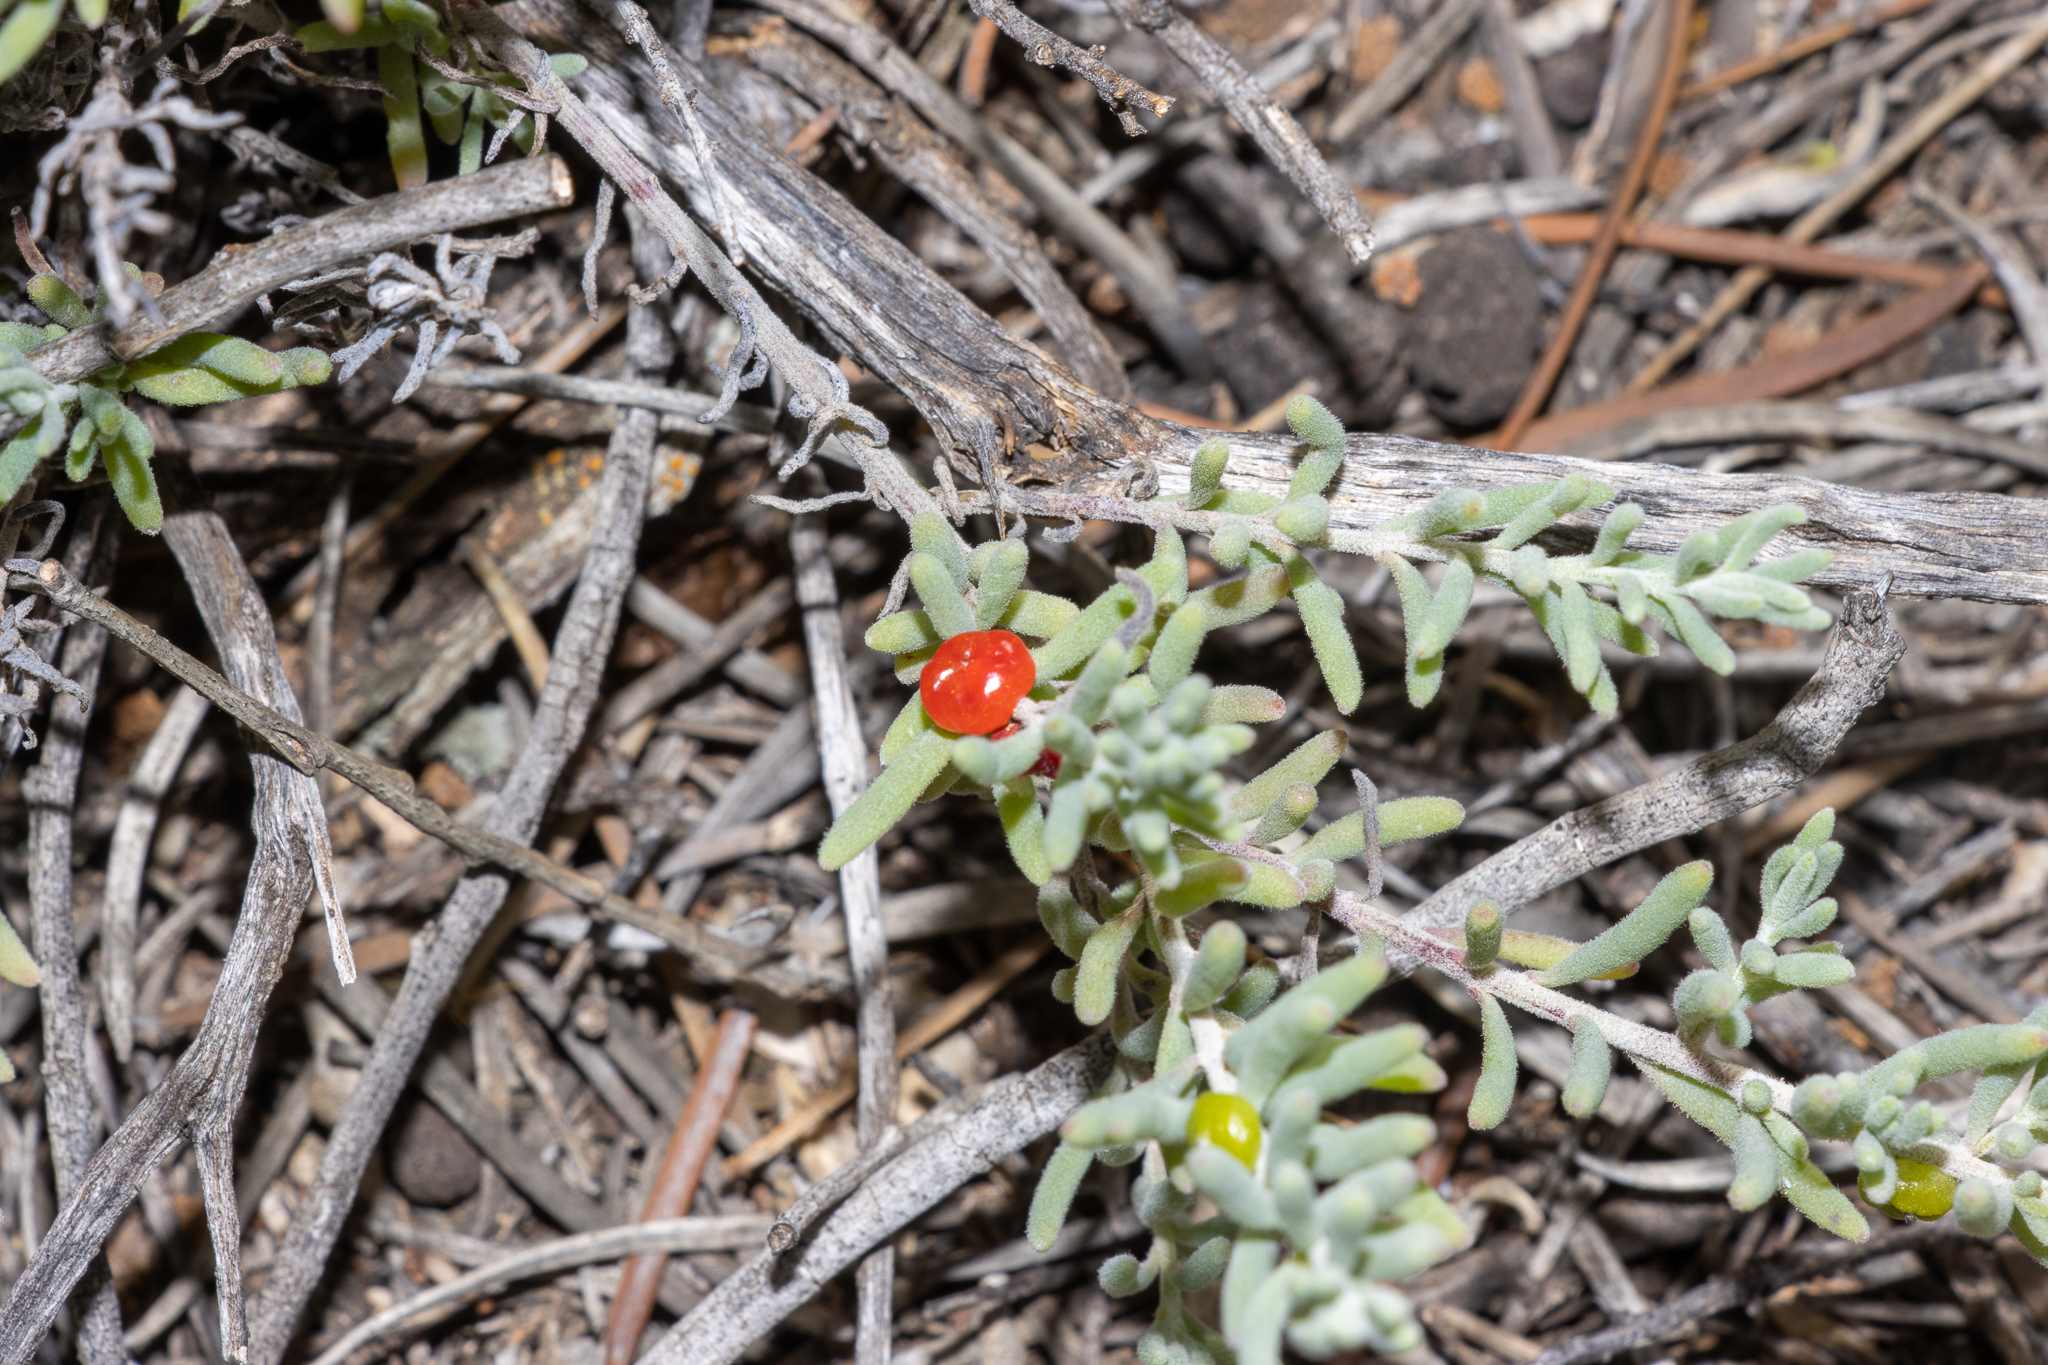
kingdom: Plantae
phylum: Tracheophyta
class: Magnoliopsida
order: Caryophyllales
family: Amaranthaceae
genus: Enchylaena
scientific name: Enchylaena tomentosa
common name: Ruby saltbush
